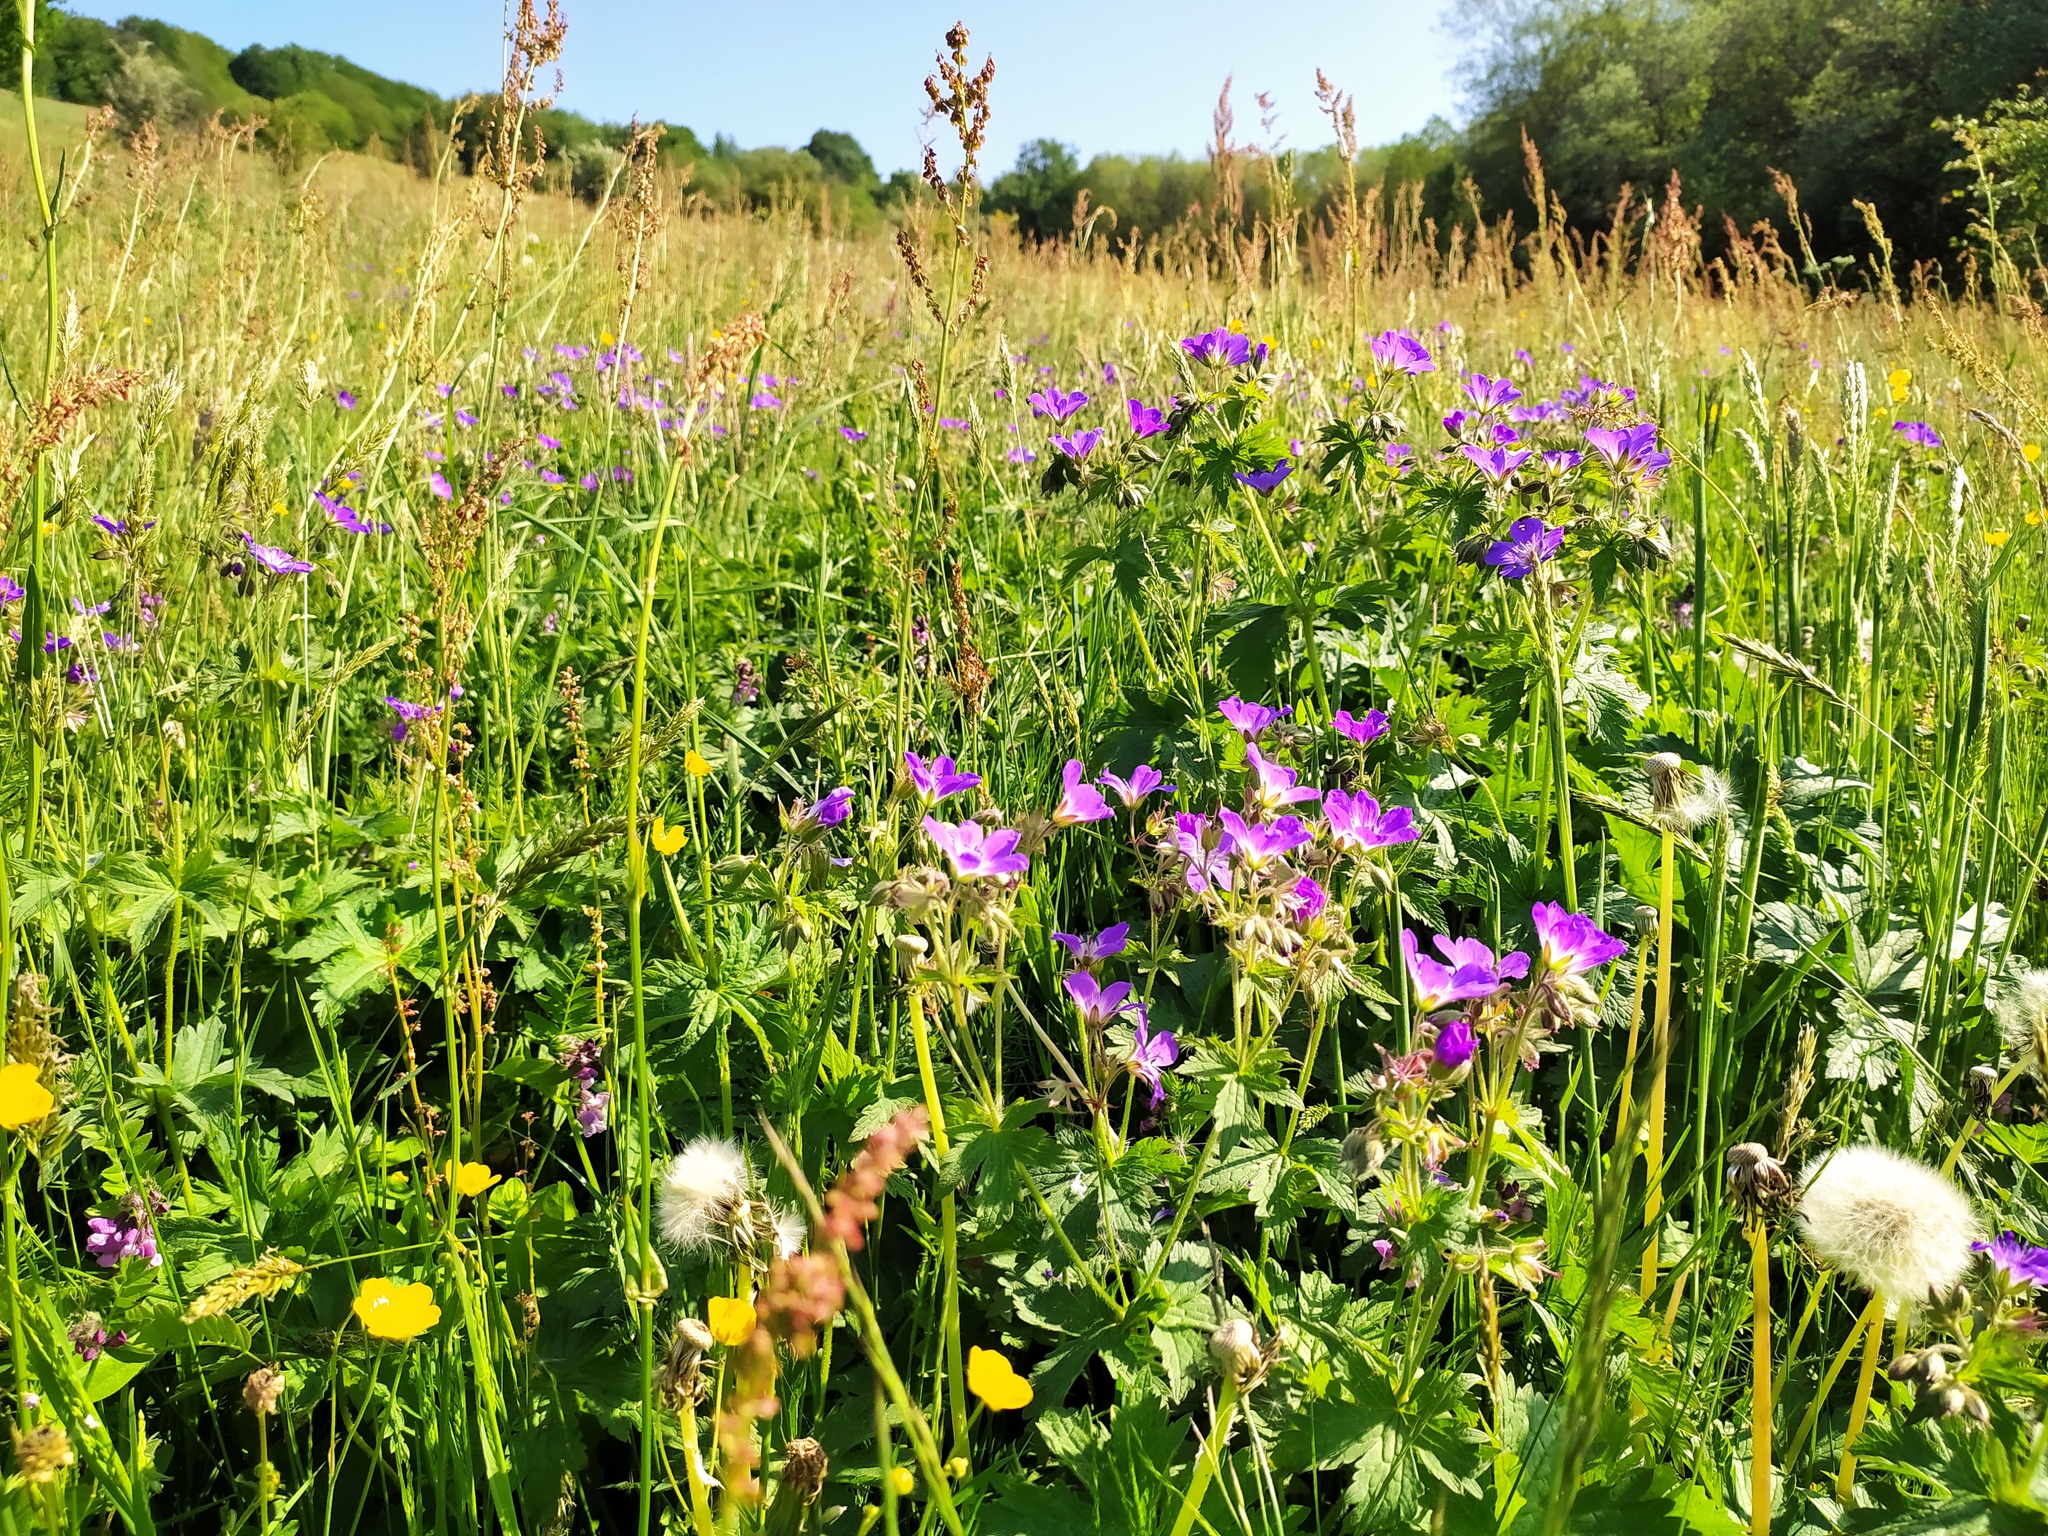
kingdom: Plantae
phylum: Tracheophyta
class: Magnoliopsida
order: Geraniales
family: Geraniaceae
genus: Geranium
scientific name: Geranium sylvaticum
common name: Wood crane's-bill
